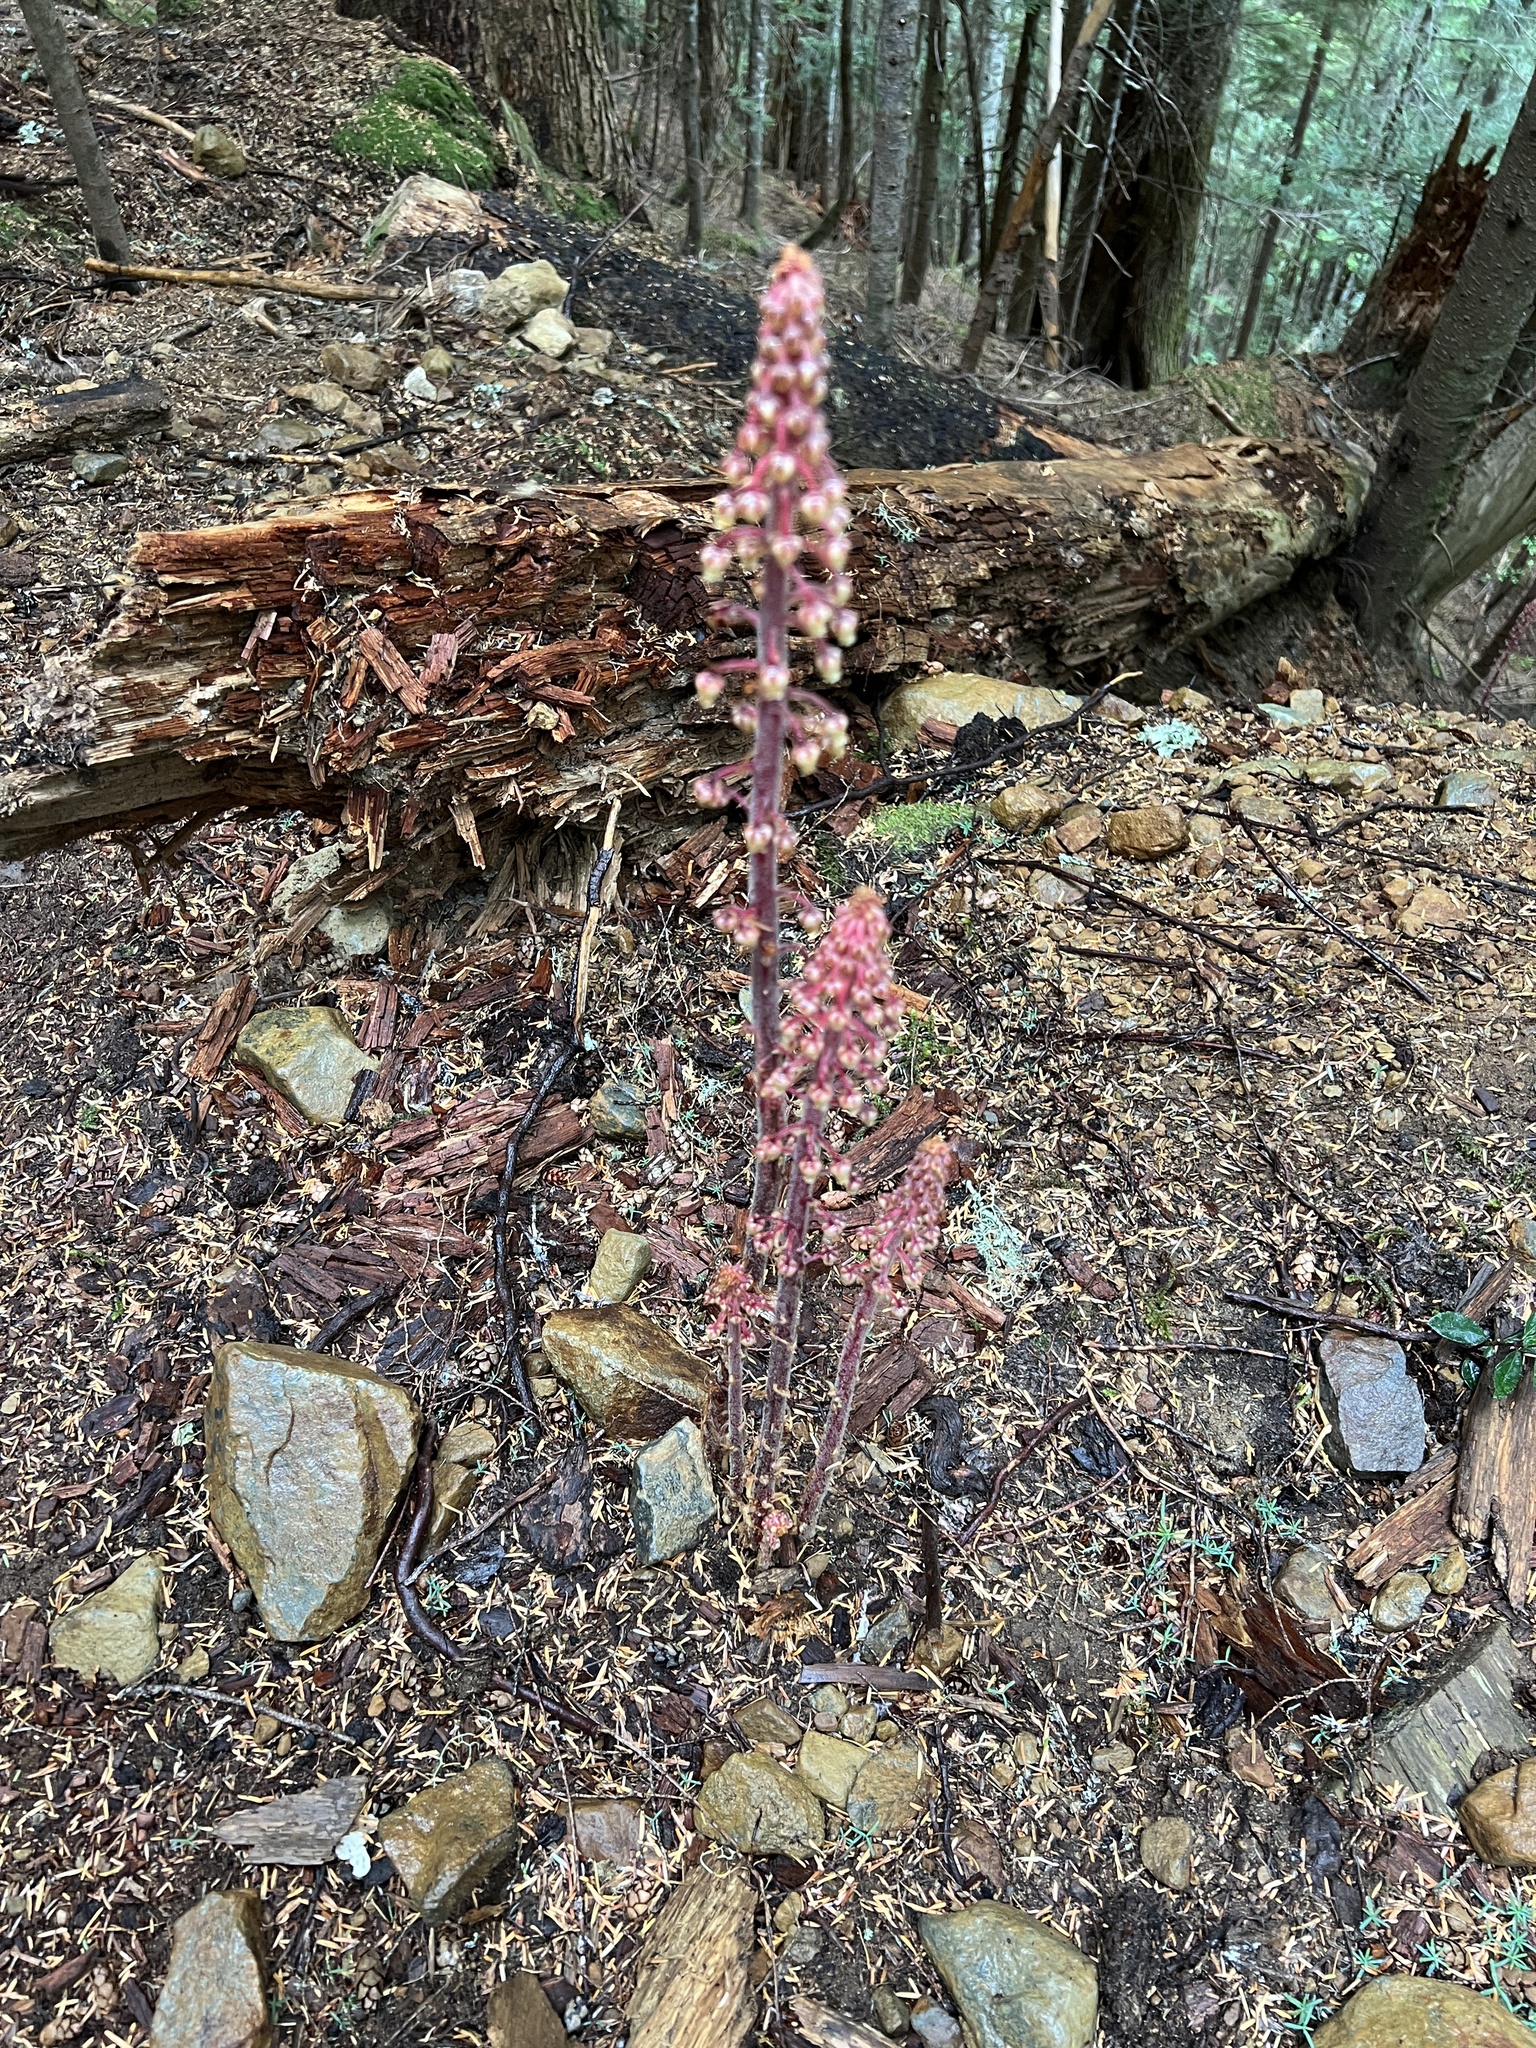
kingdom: Plantae
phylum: Tracheophyta
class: Magnoliopsida
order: Ericales
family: Ericaceae
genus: Pterospora
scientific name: Pterospora andromedea
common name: Giant bird's-nest
